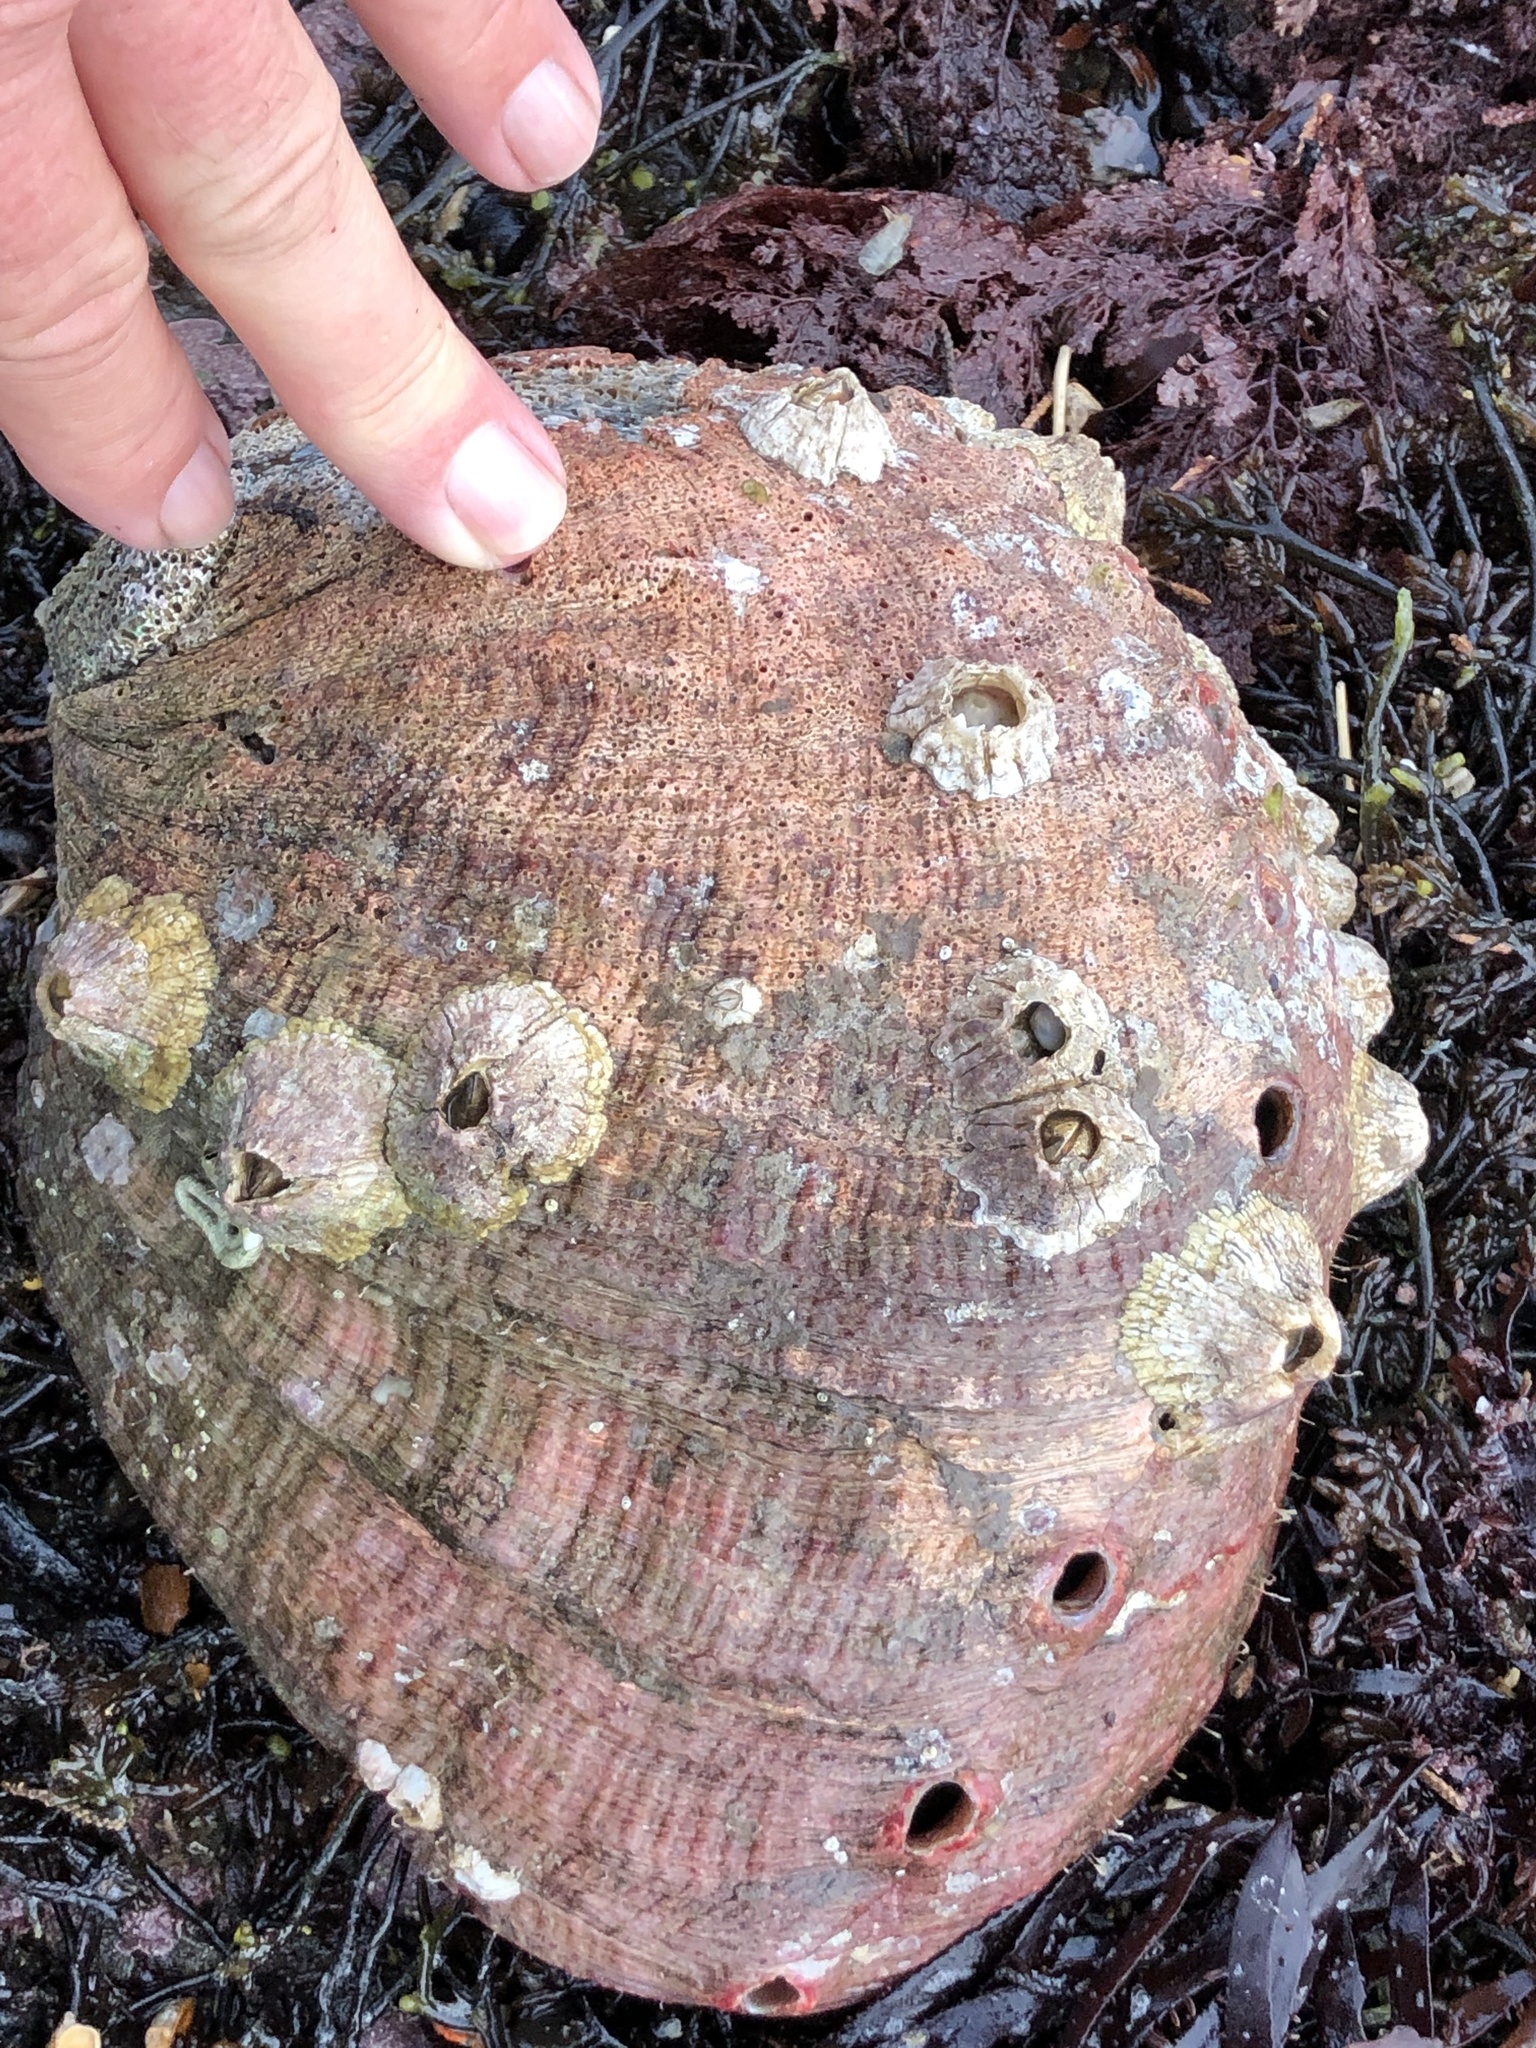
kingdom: Animalia
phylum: Mollusca
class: Gastropoda
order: Lepetellida
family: Haliotidae
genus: Haliotis
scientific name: Haliotis rufescens
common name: Red abalone
